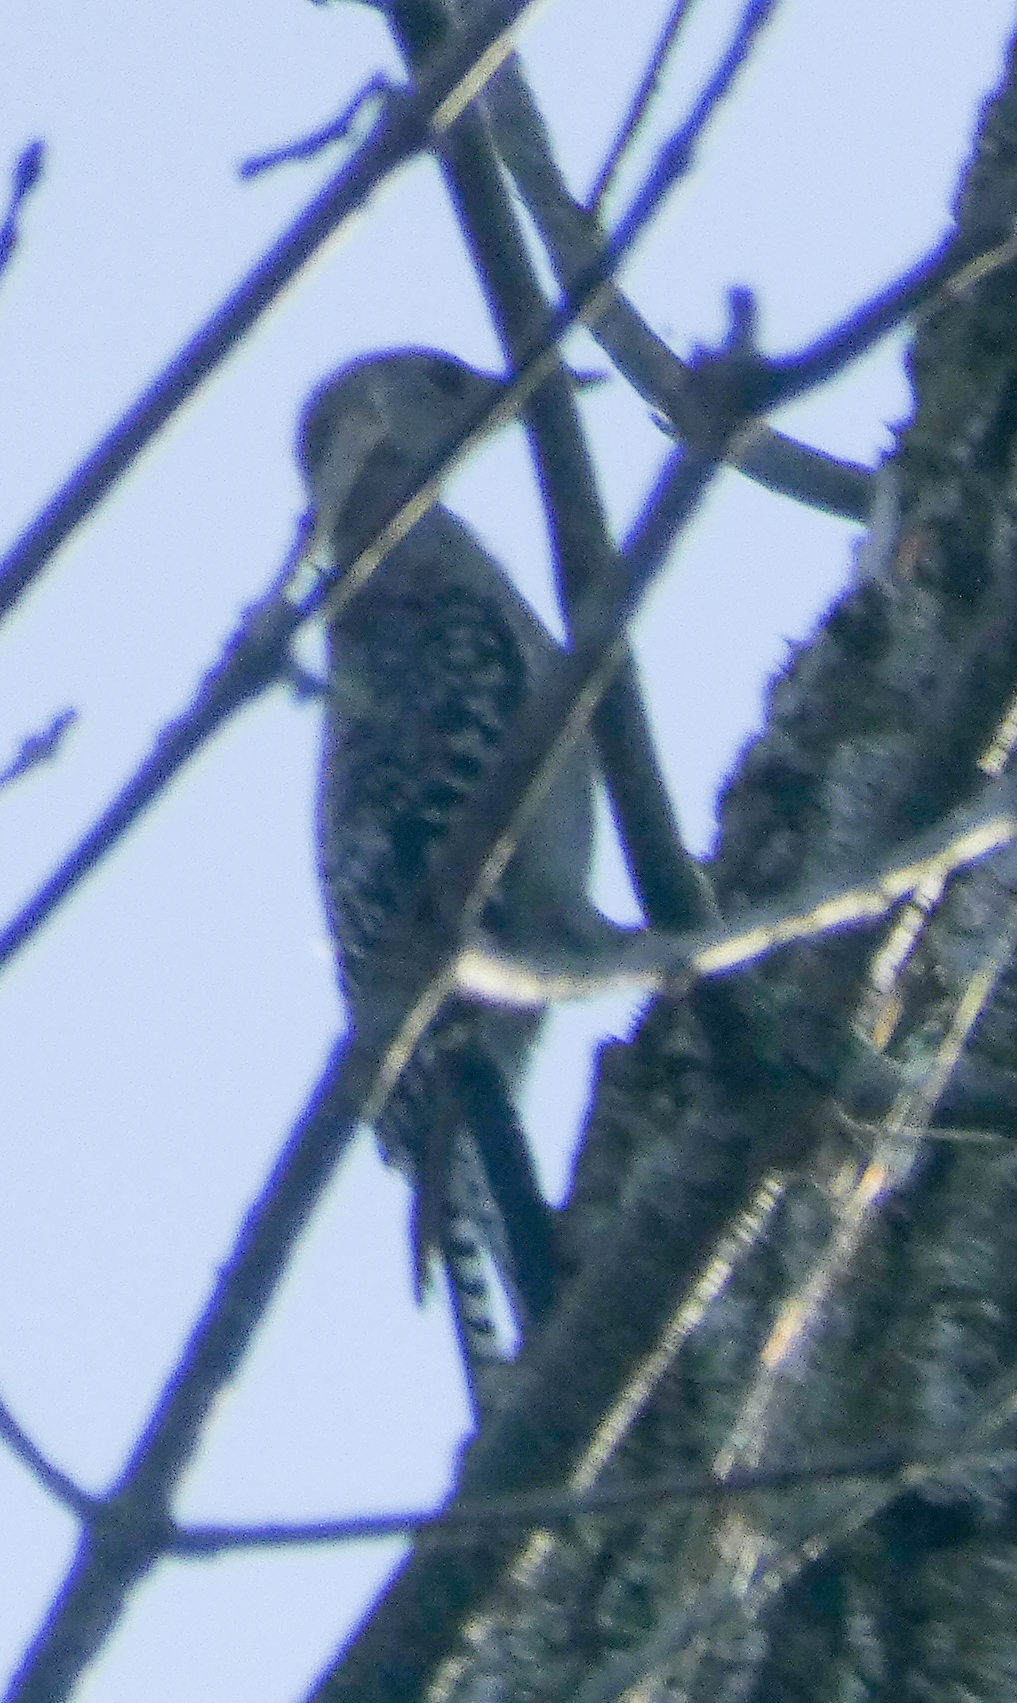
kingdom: Animalia
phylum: Chordata
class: Aves
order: Piciformes
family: Picidae
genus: Melanerpes
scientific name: Melanerpes carolinus
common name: Red-bellied woodpecker
